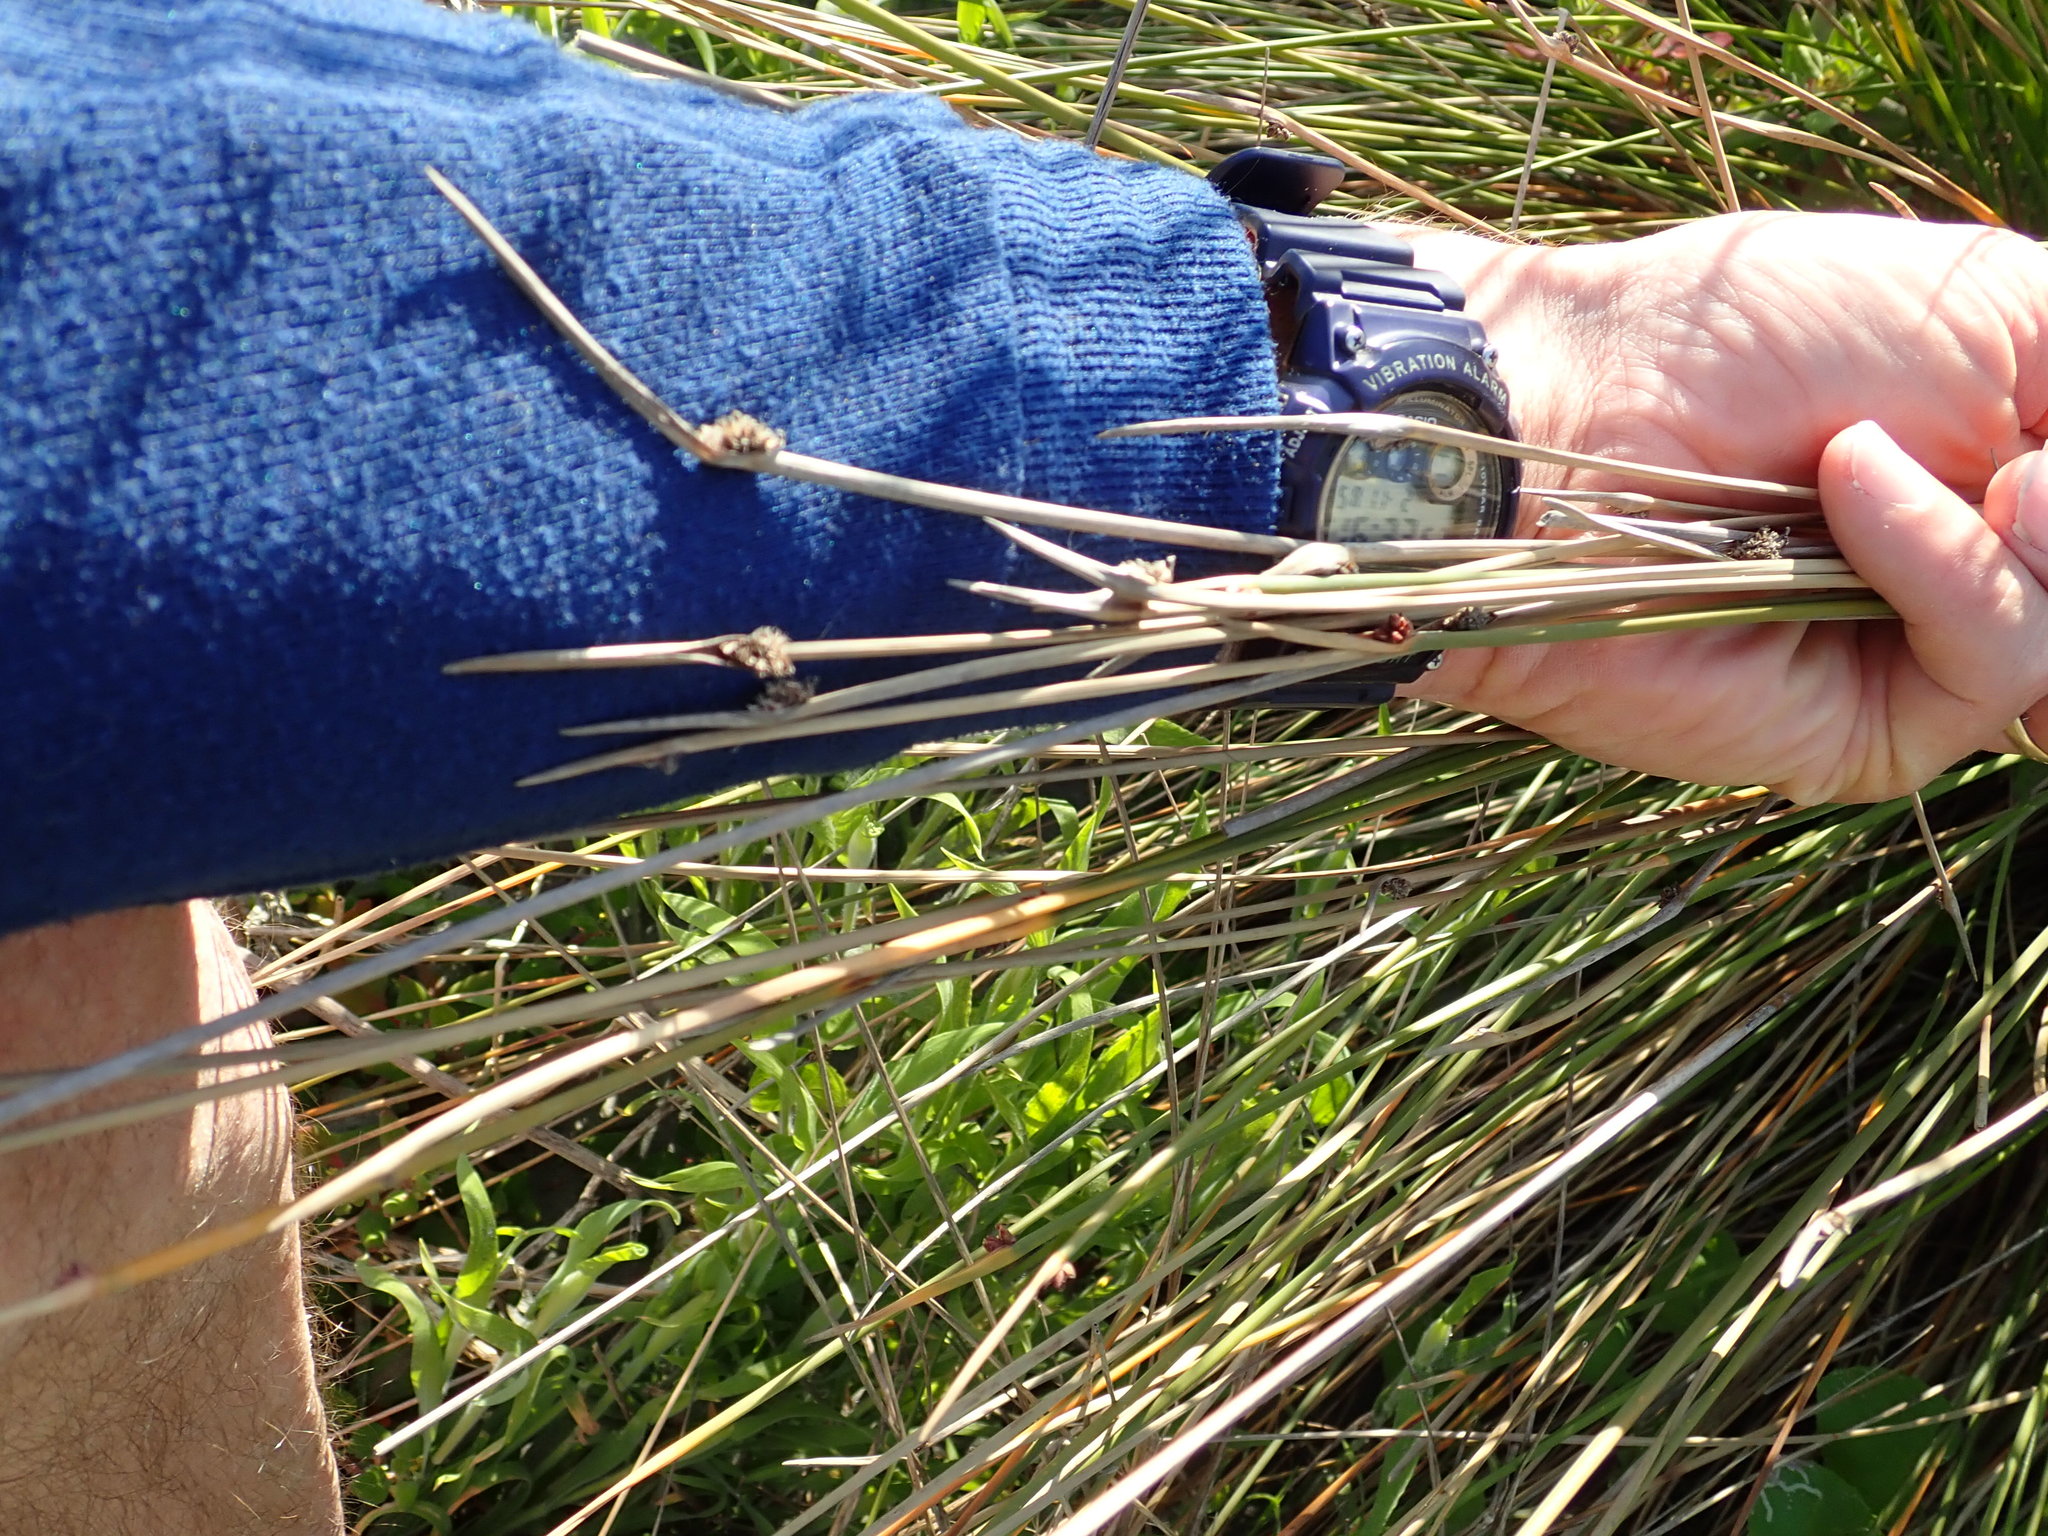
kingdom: Plantae
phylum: Tracheophyta
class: Liliopsida
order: Poales
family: Cyperaceae
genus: Ficinia
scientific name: Ficinia nodosa
